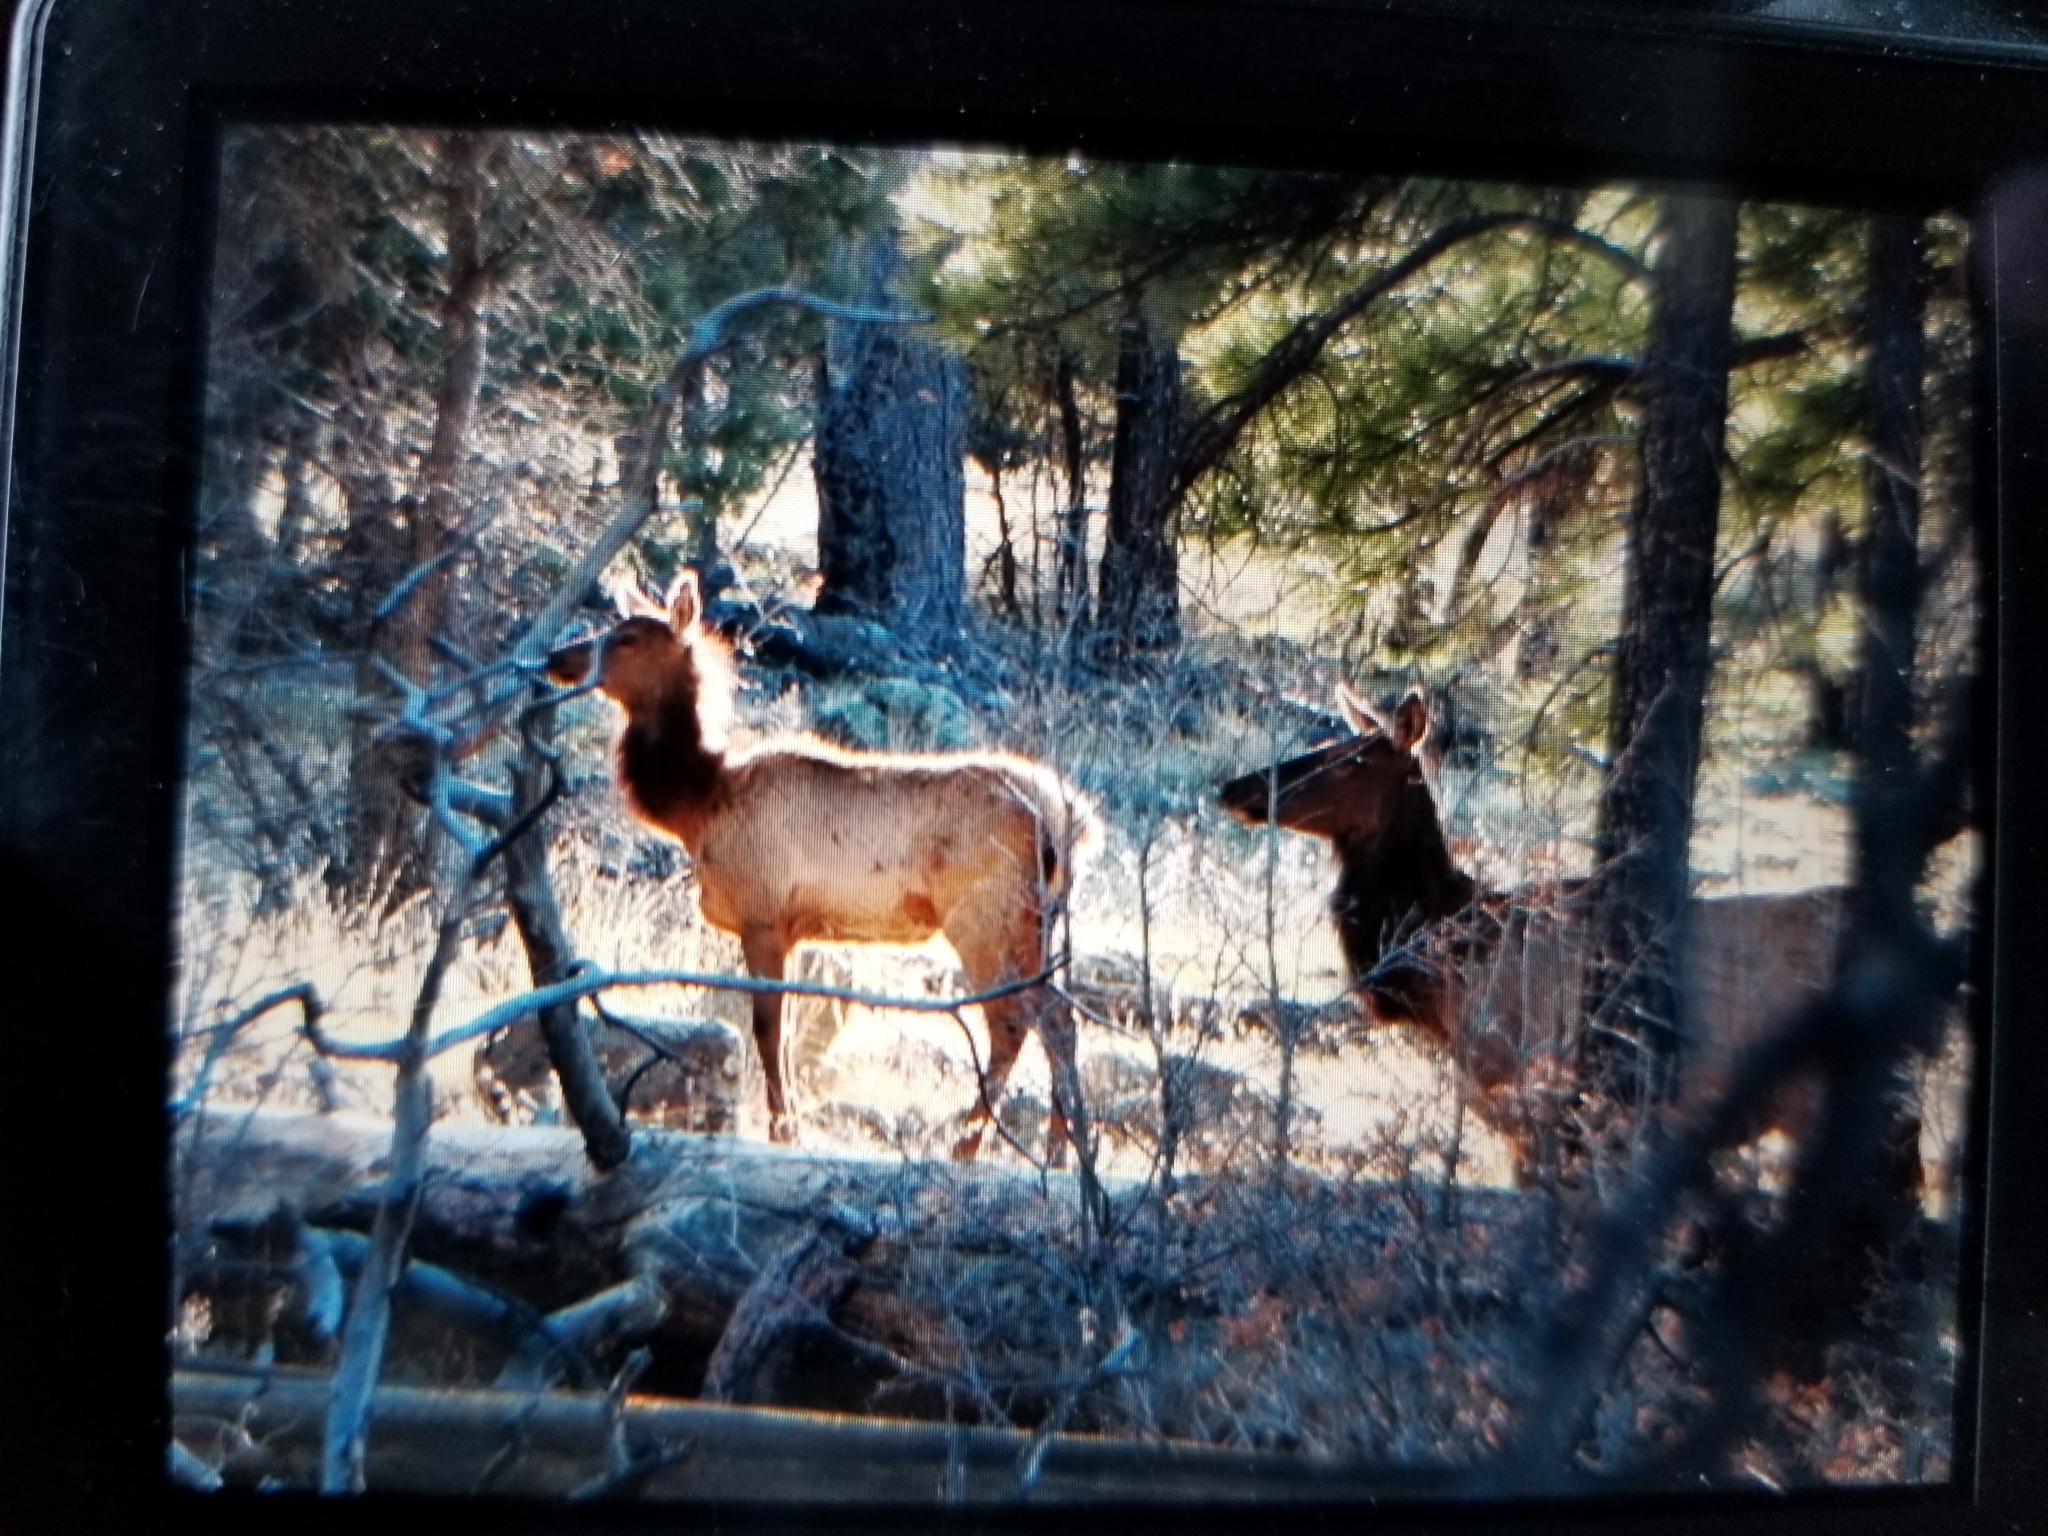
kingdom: Animalia
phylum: Chordata
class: Mammalia
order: Artiodactyla
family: Cervidae
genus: Cervus
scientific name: Cervus elaphus
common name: Red deer
